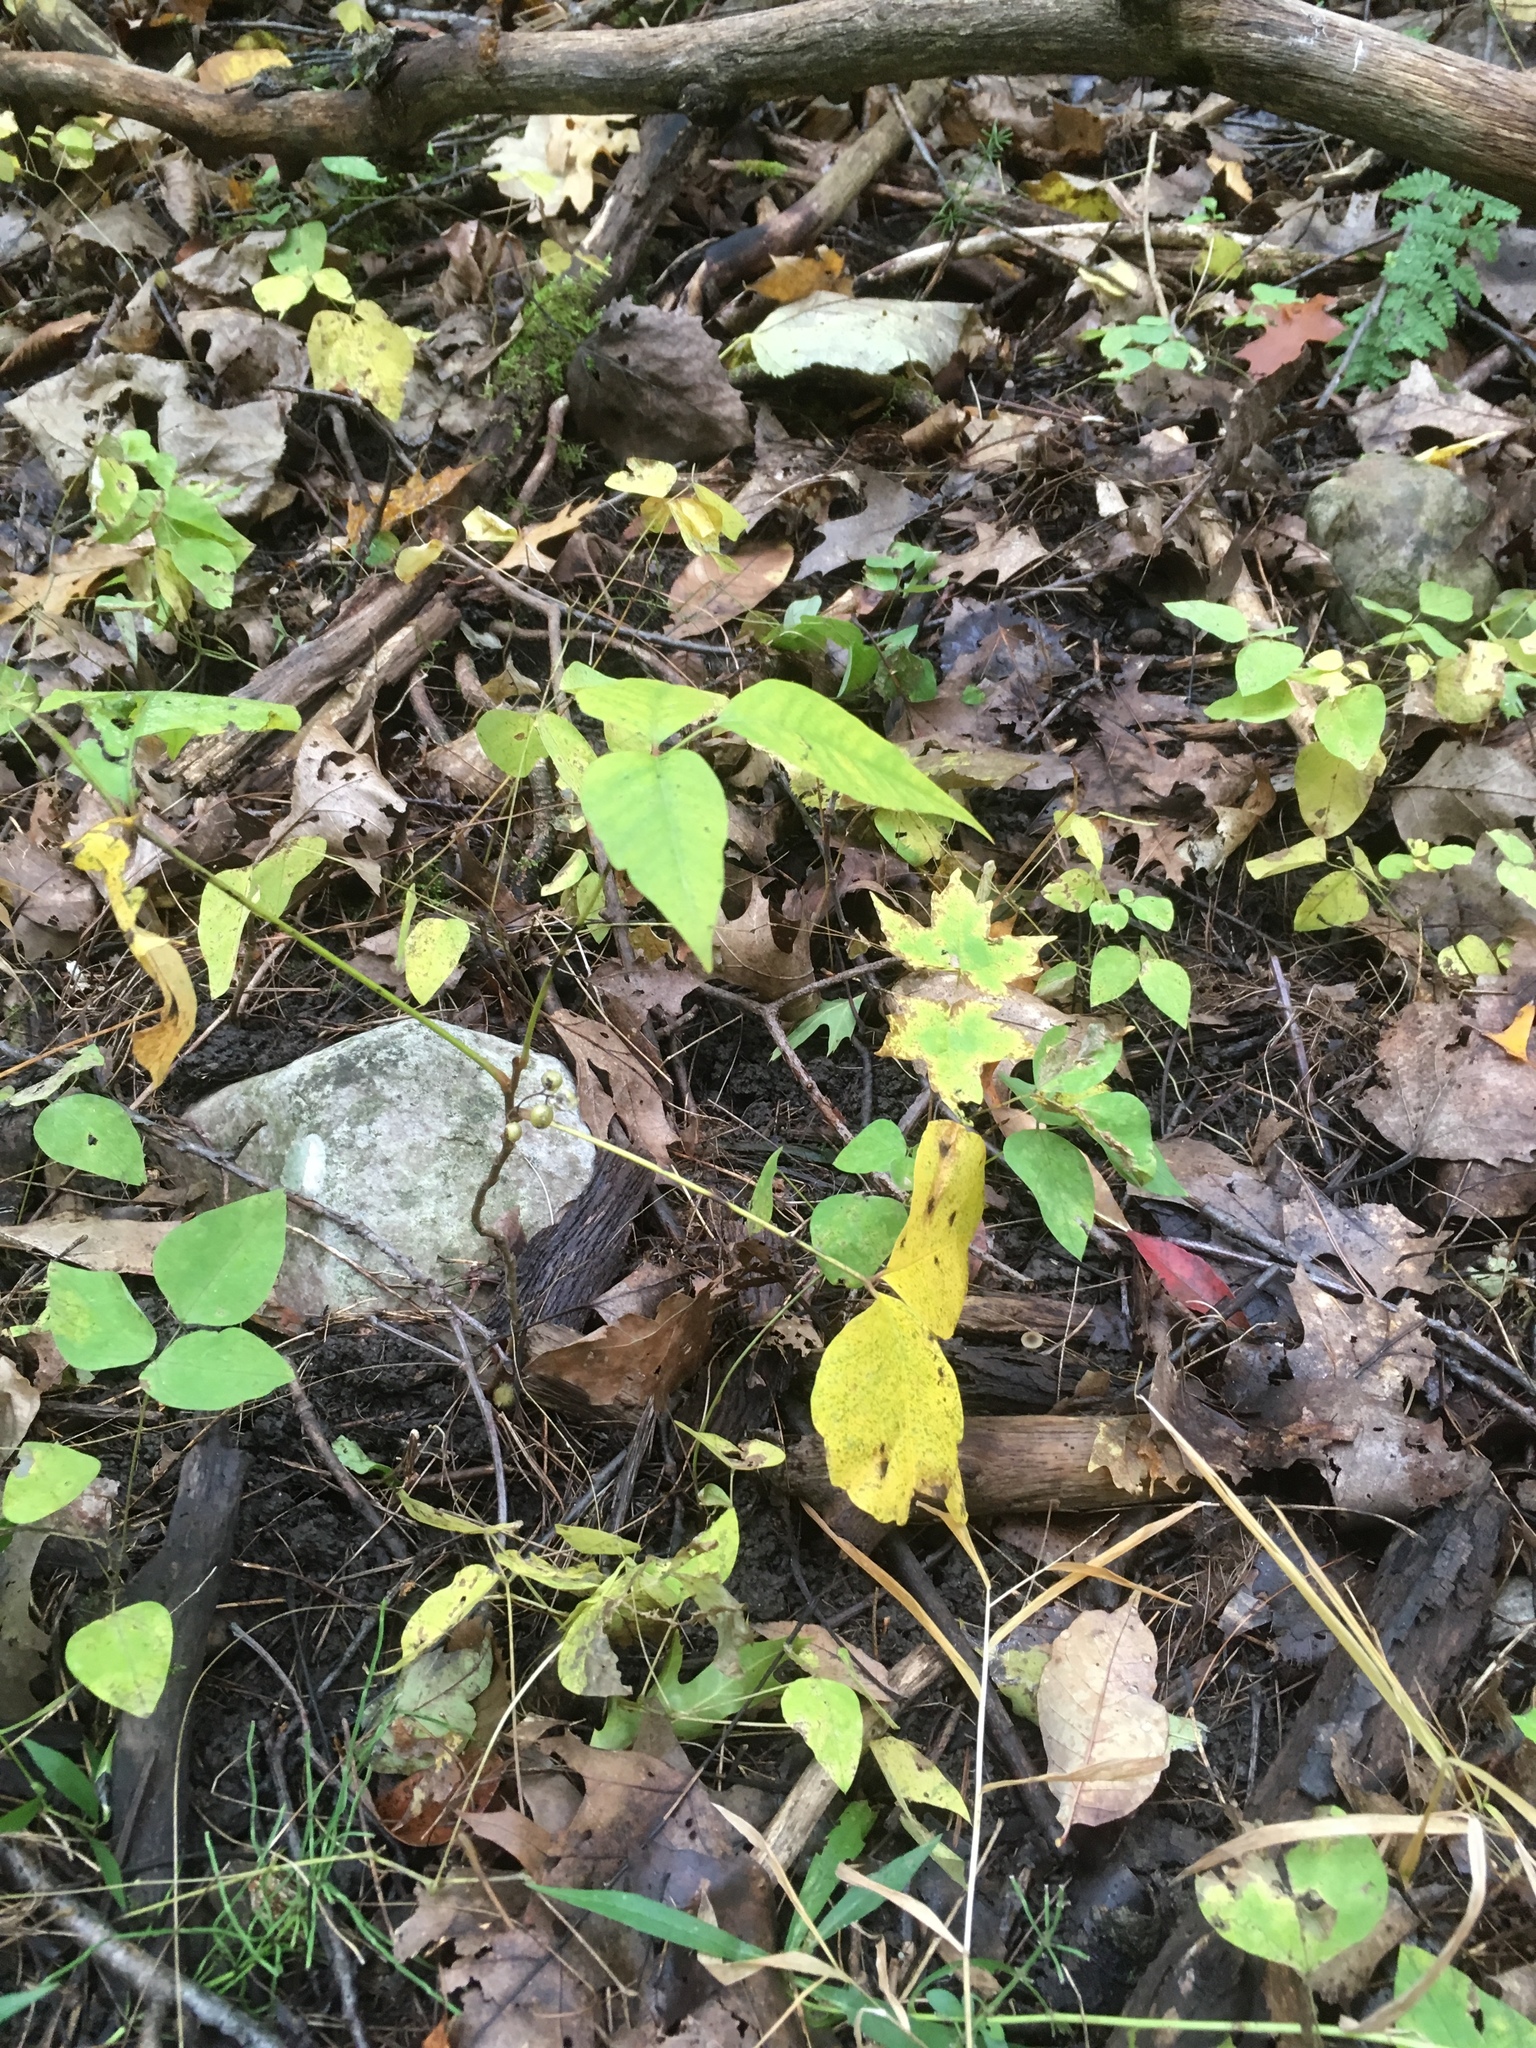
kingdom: Plantae
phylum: Tracheophyta
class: Magnoliopsida
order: Sapindales
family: Anacardiaceae
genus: Toxicodendron
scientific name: Toxicodendron rydbergii
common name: Rydberg's poison-ivy
